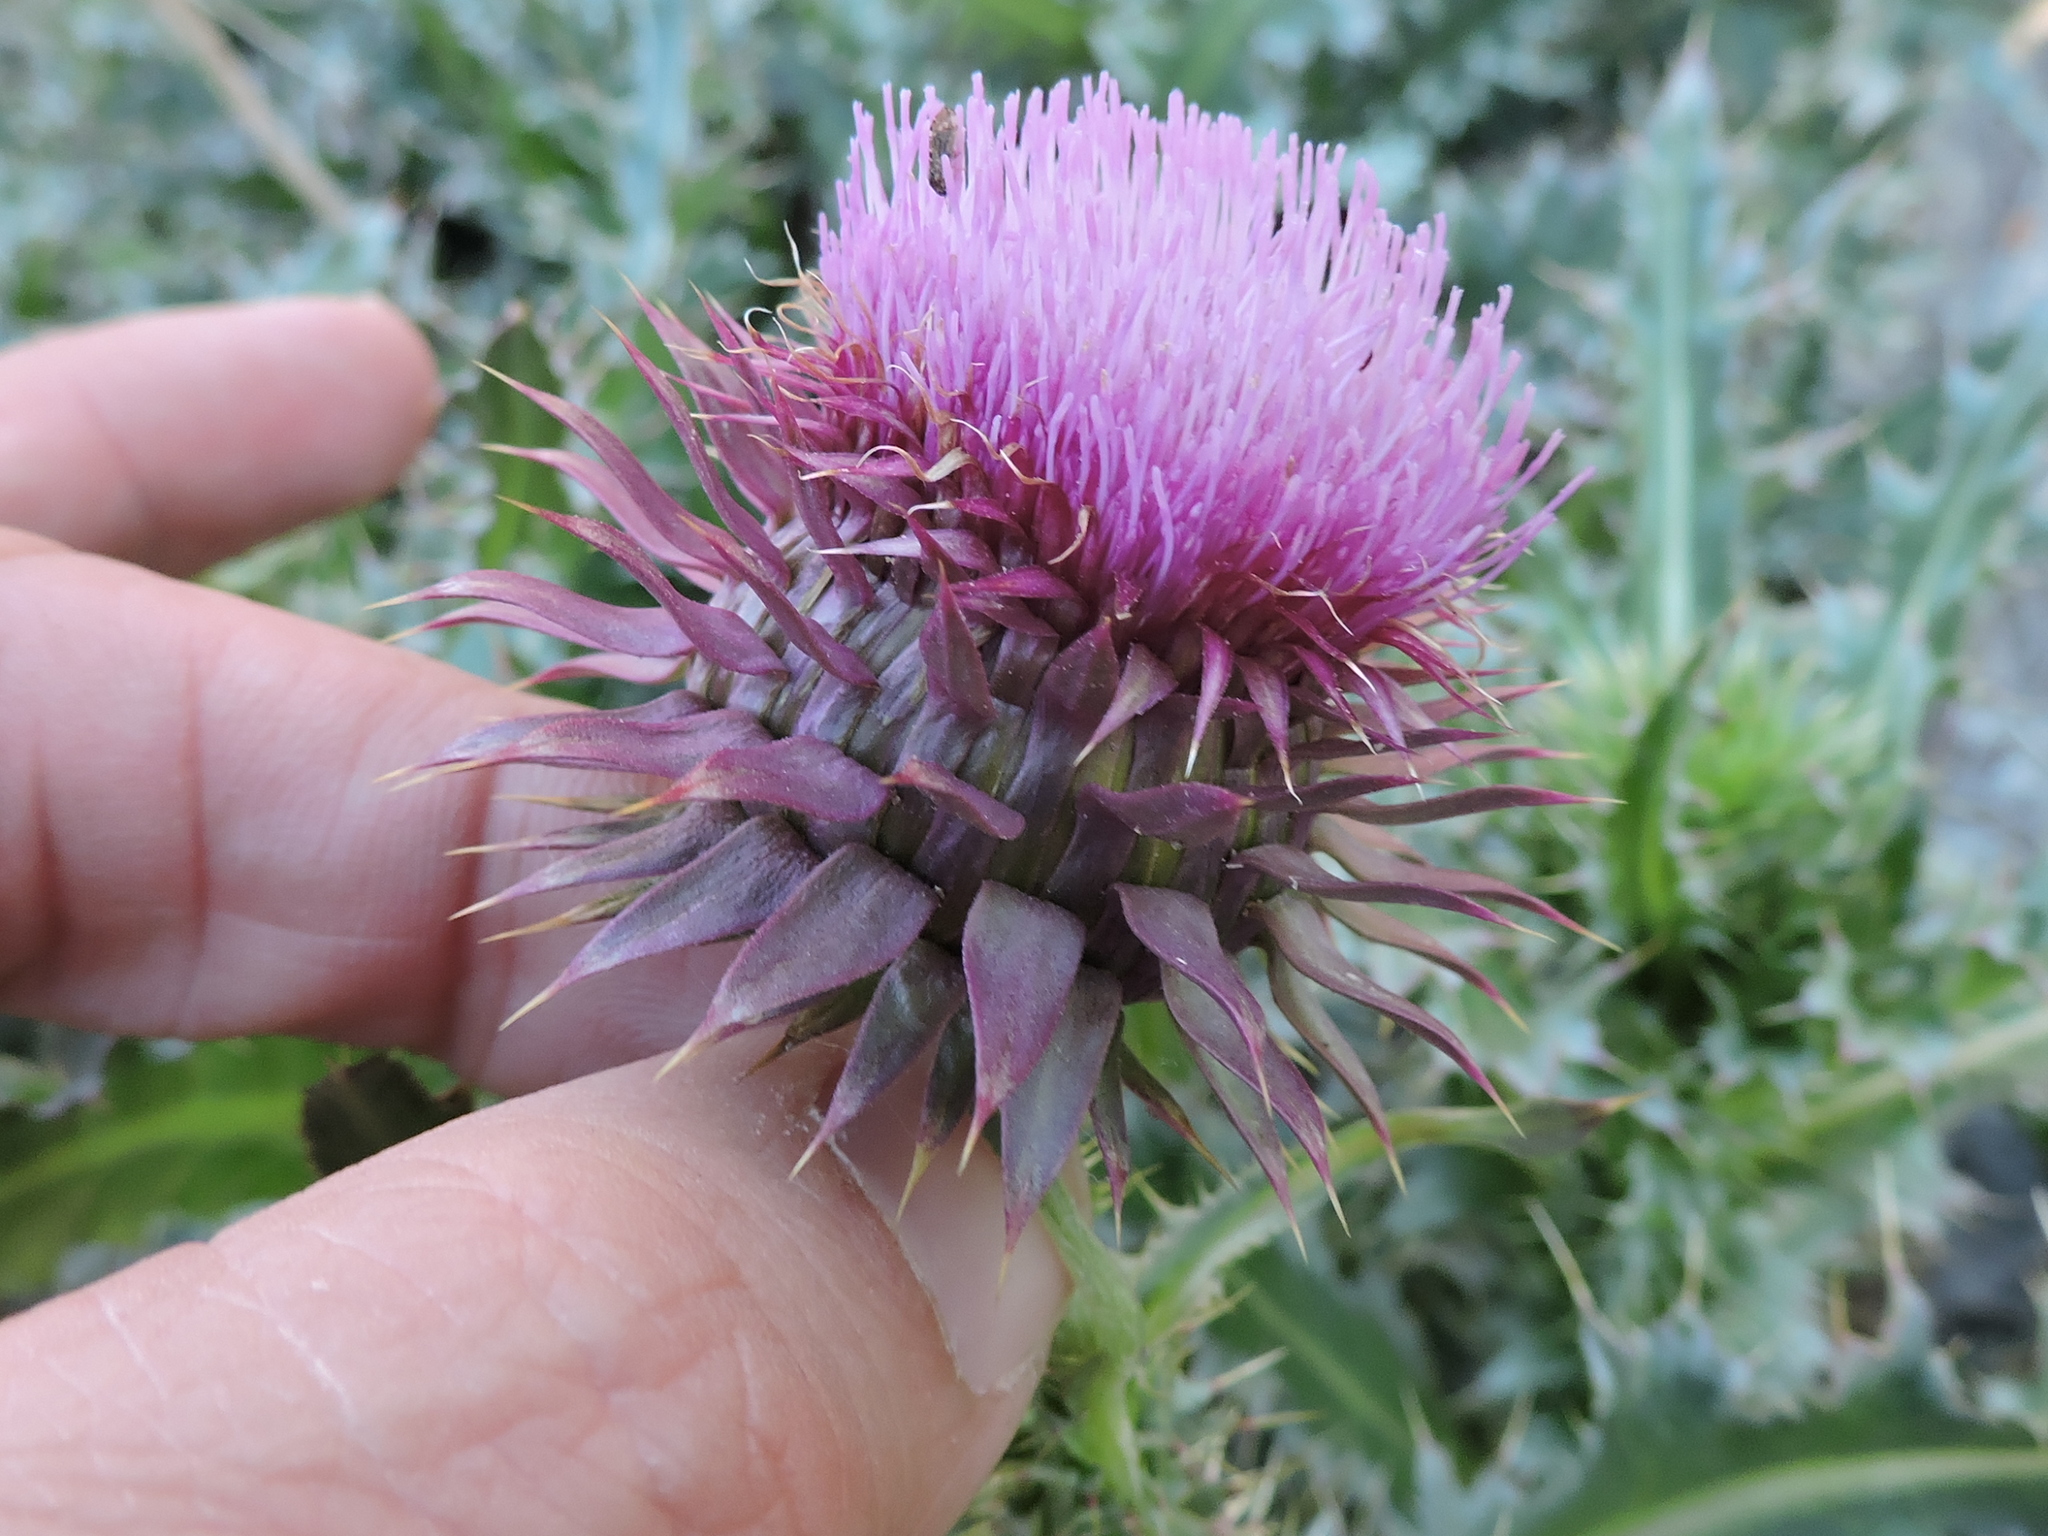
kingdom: Plantae
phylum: Tracheophyta
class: Magnoliopsida
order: Asterales
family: Asteraceae
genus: Carduus
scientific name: Carduus nutans
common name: Musk thistle
